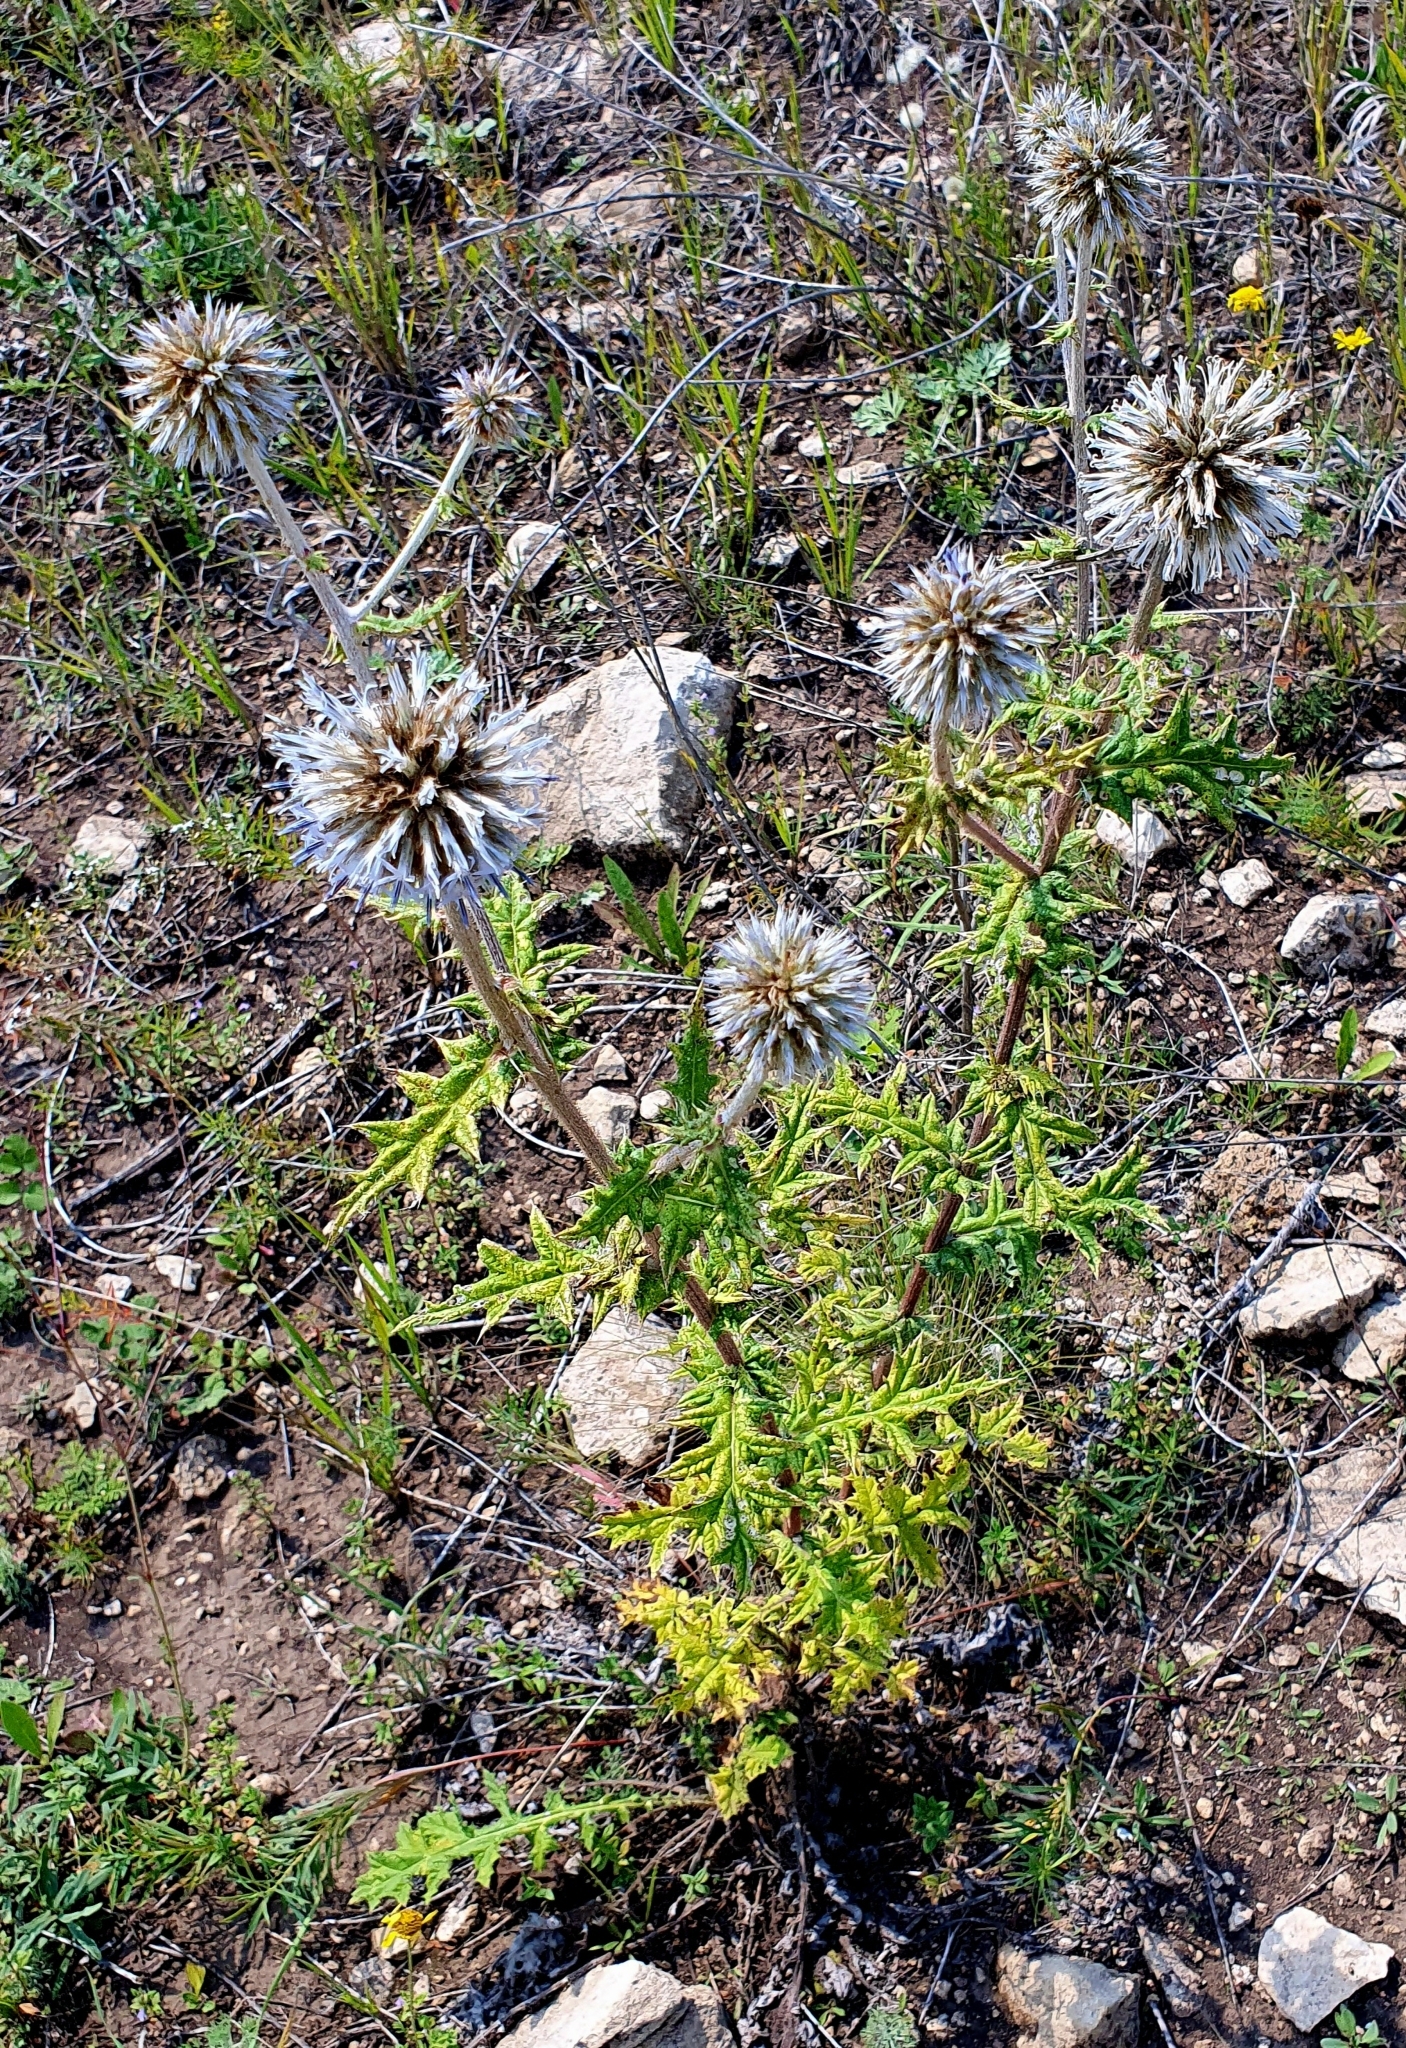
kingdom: Plantae
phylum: Tracheophyta
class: Magnoliopsida
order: Asterales
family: Asteraceae
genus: Echinops
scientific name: Echinops sphaerocephalus
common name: Glandular globe-thistle
